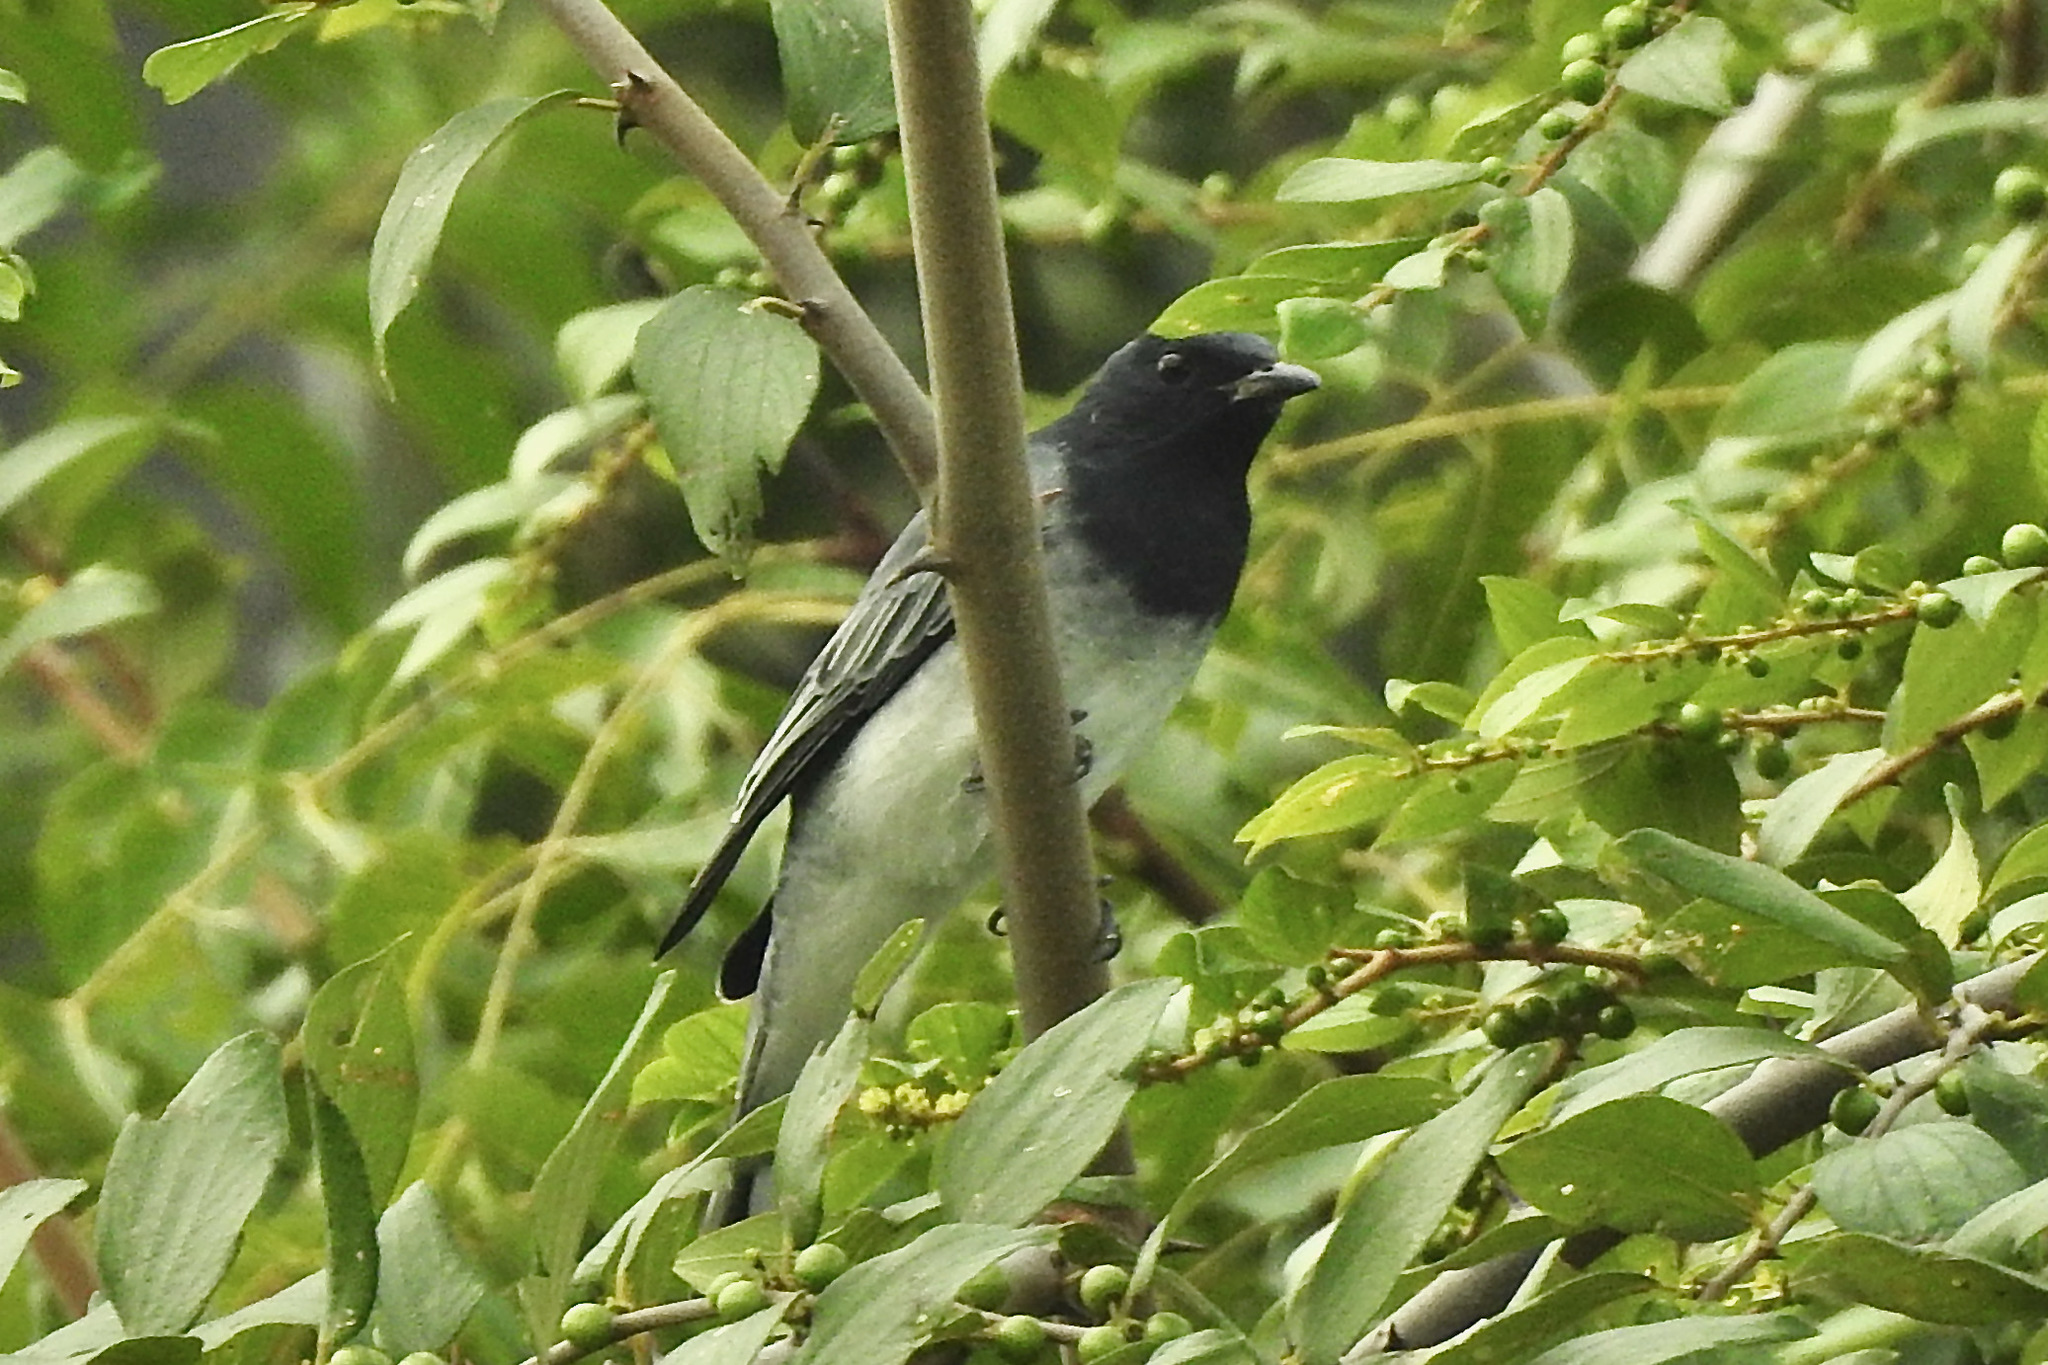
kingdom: Animalia
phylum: Chordata
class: Aves
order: Passeriformes
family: Campephagidae
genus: Coracina
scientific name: Coracina melanoptera
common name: Black-headed cuckooshrike
